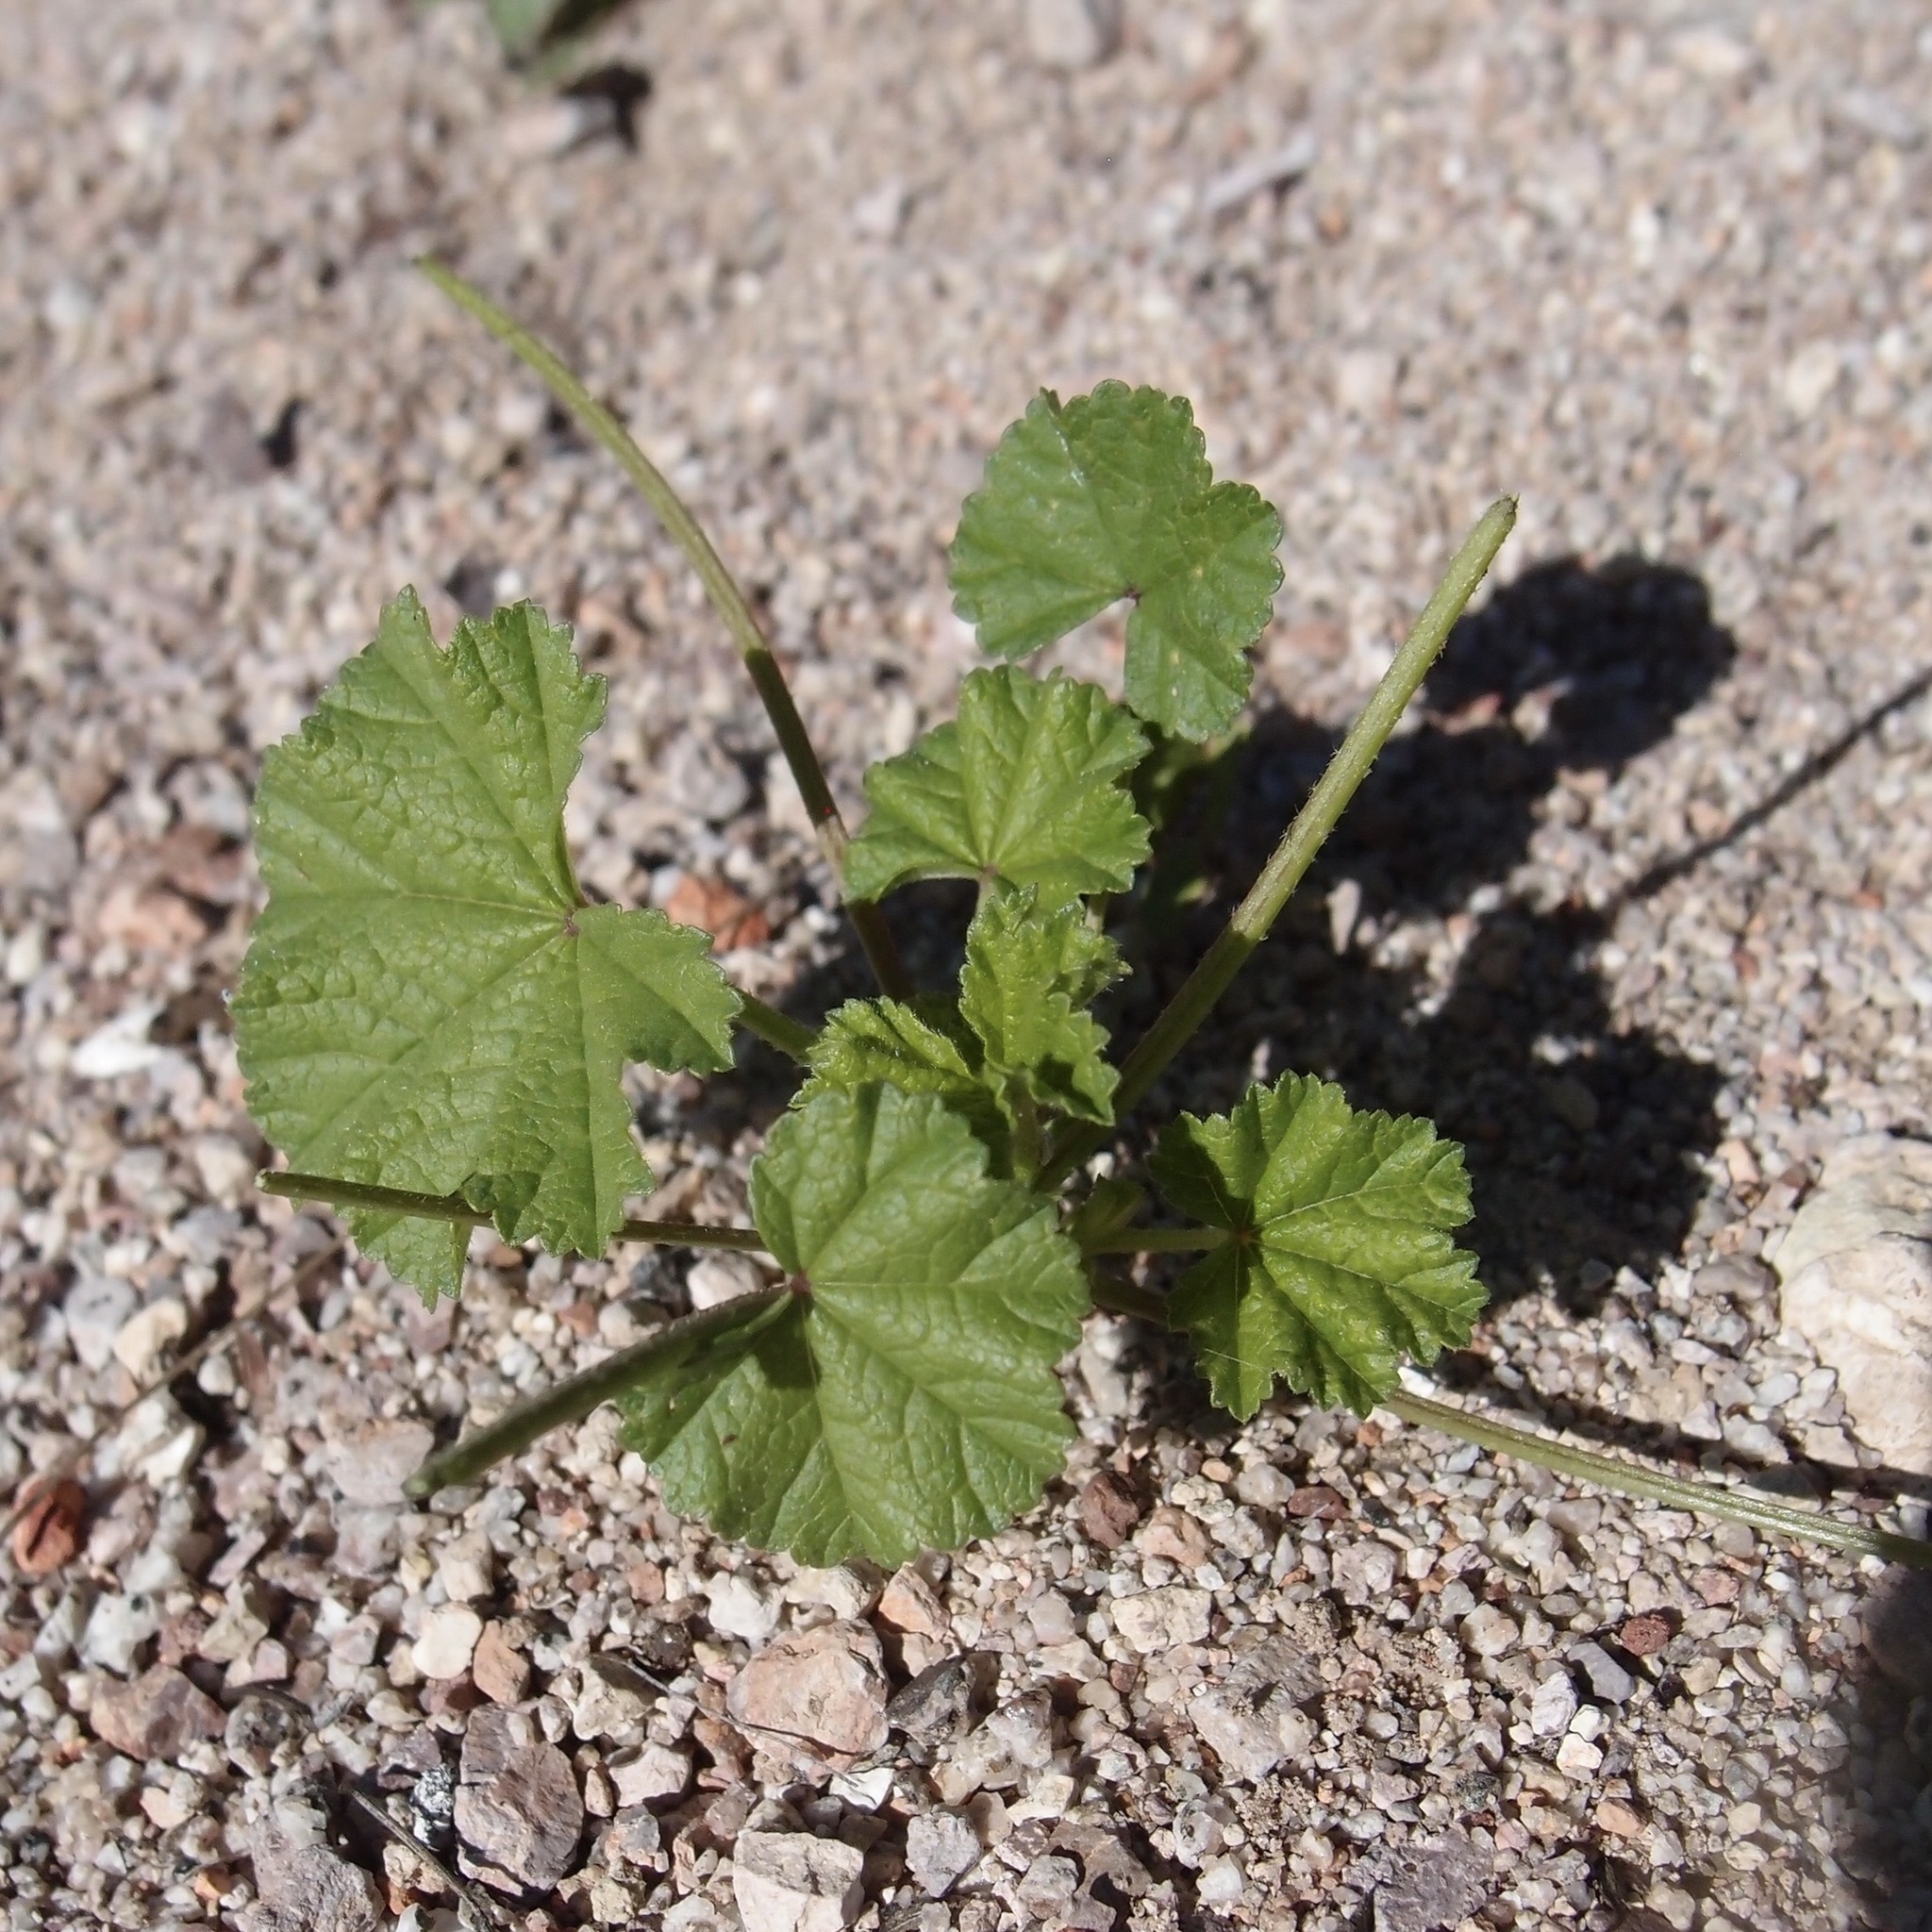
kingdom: Plantae
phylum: Tracheophyta
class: Magnoliopsida
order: Malvales
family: Malvaceae
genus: Malva
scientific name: Malva parviflora
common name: Least mallow
